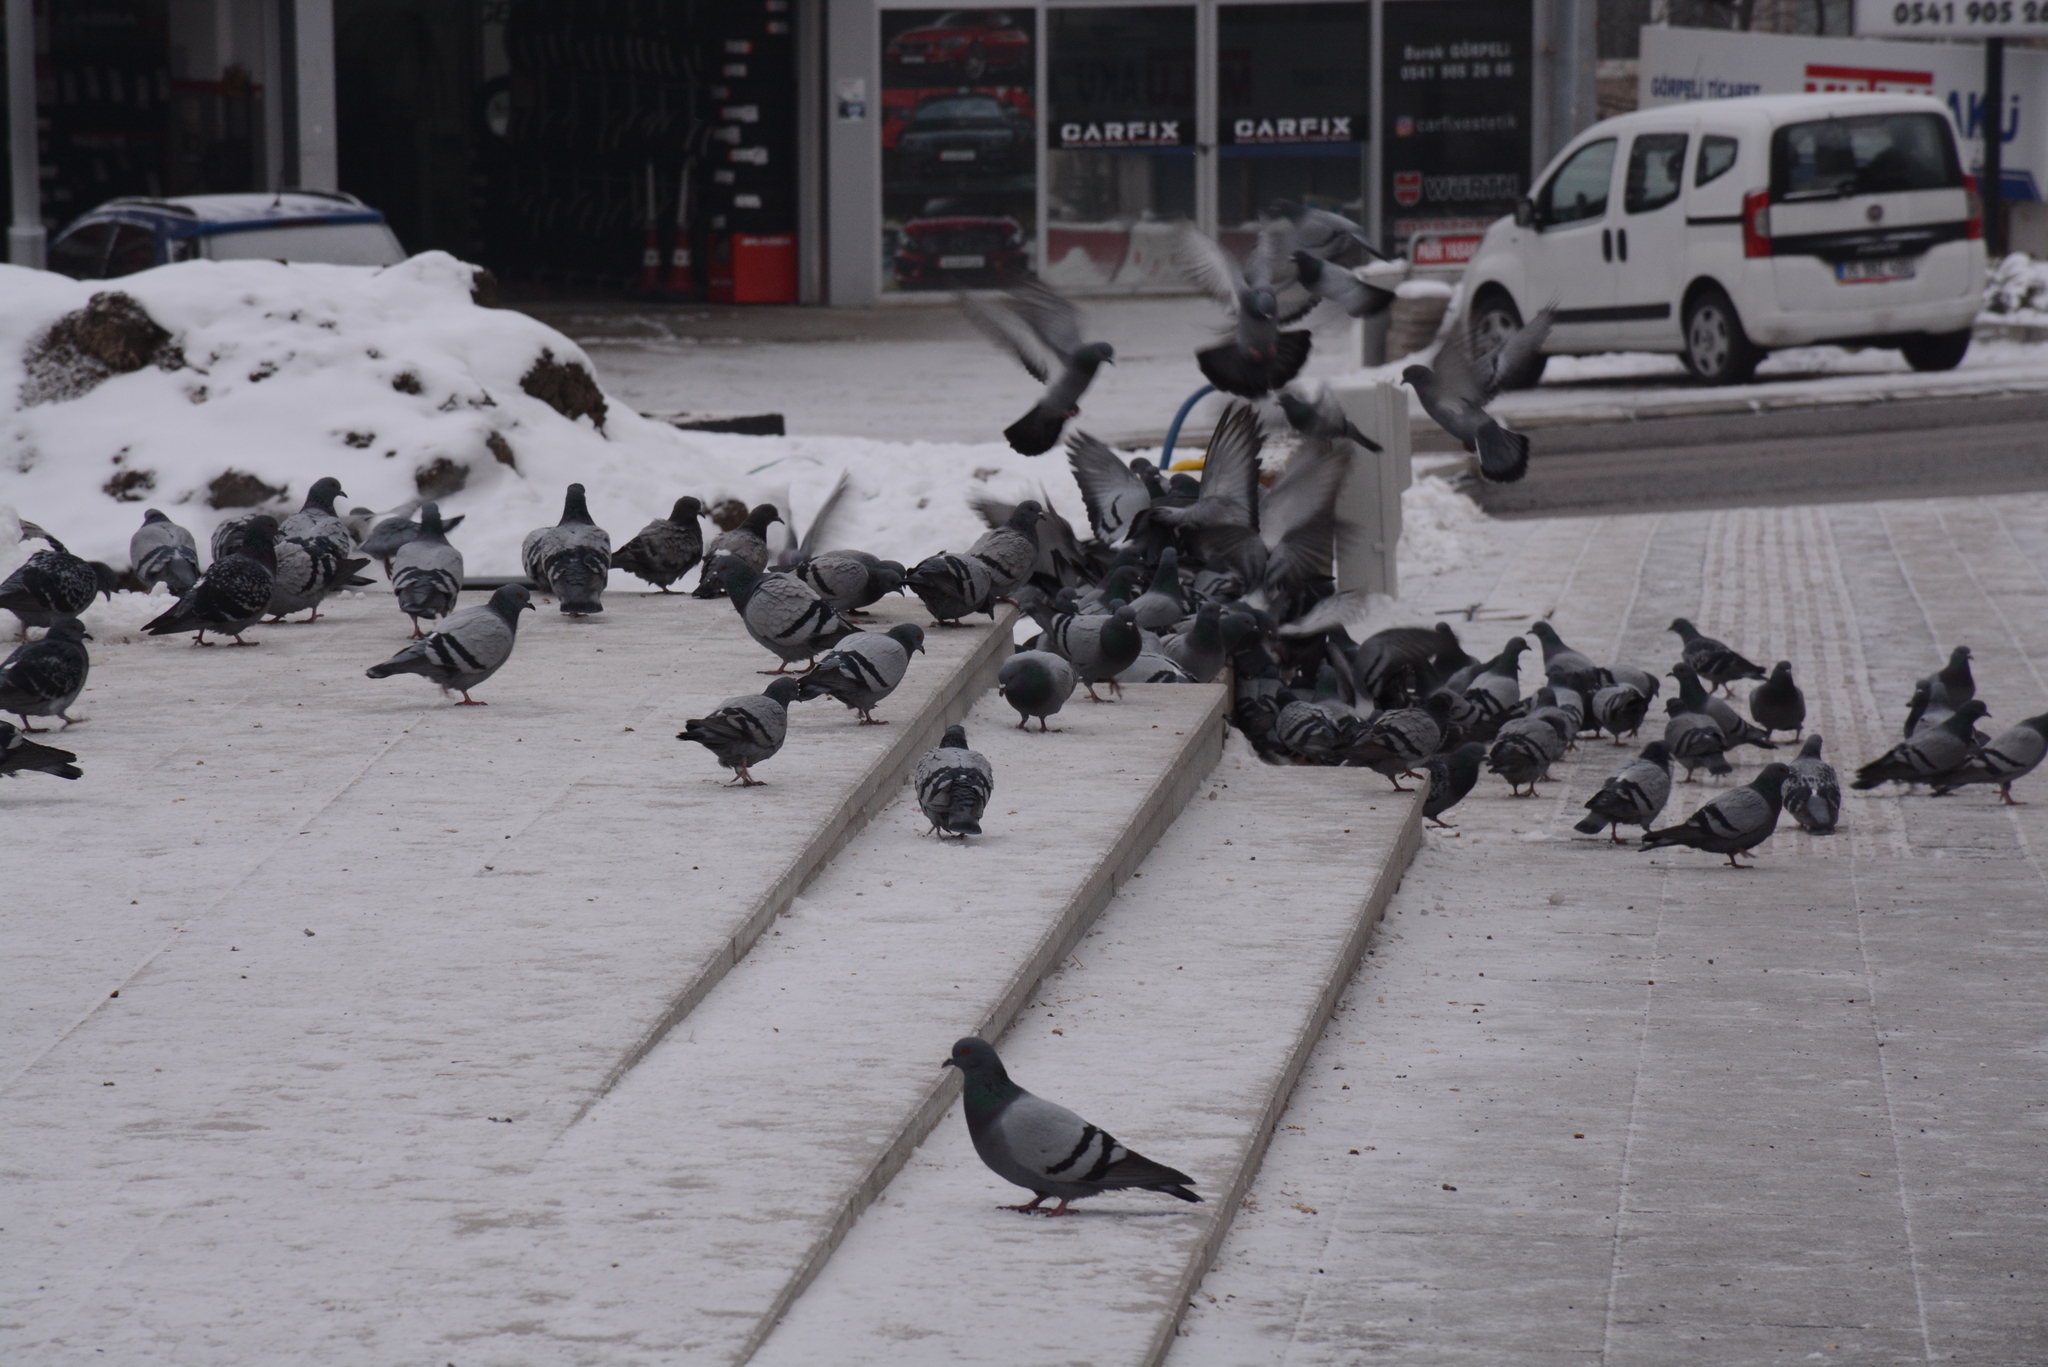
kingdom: Animalia
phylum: Chordata
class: Aves
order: Columbiformes
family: Columbidae
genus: Columba
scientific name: Columba livia
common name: Rock pigeon
